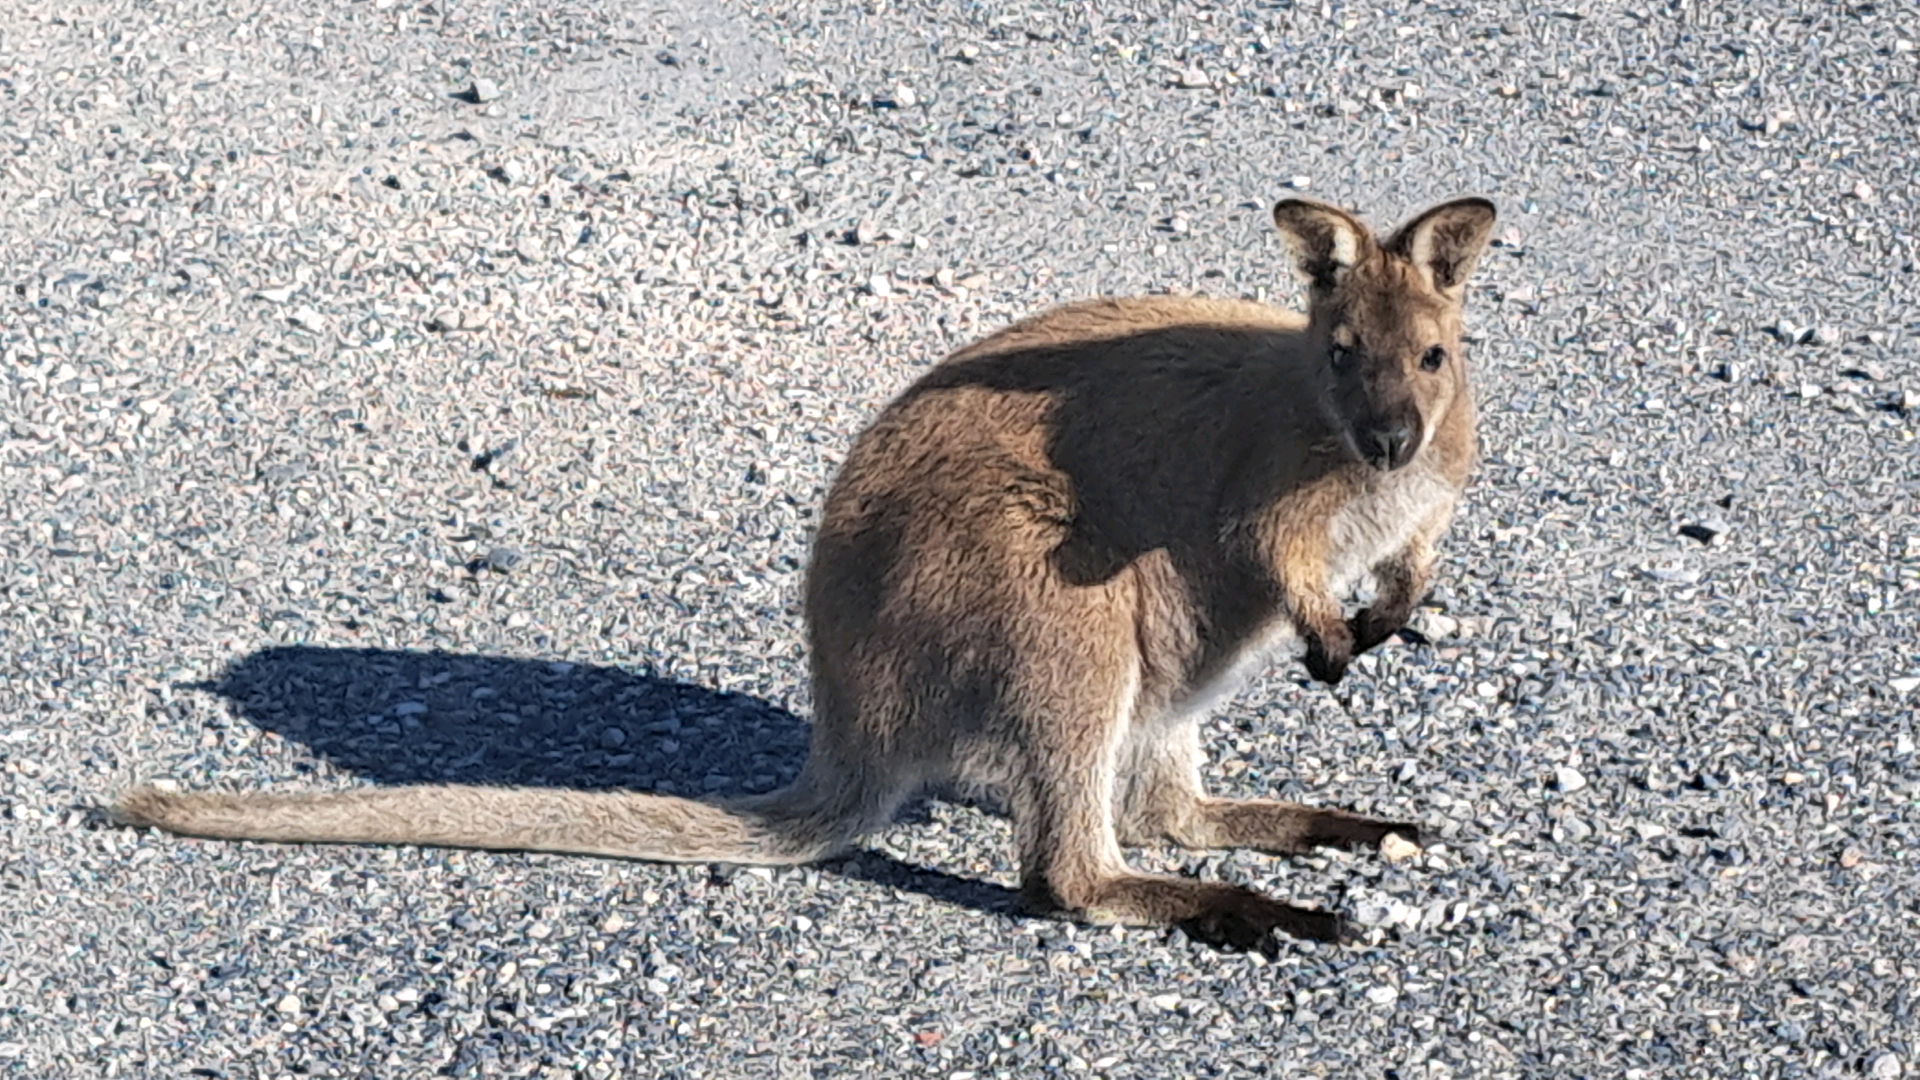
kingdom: Animalia
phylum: Chordata
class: Mammalia
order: Diprotodontia
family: Macropodidae
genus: Notamacropus
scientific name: Notamacropus rufogriseus
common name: Red-necked wallaby
